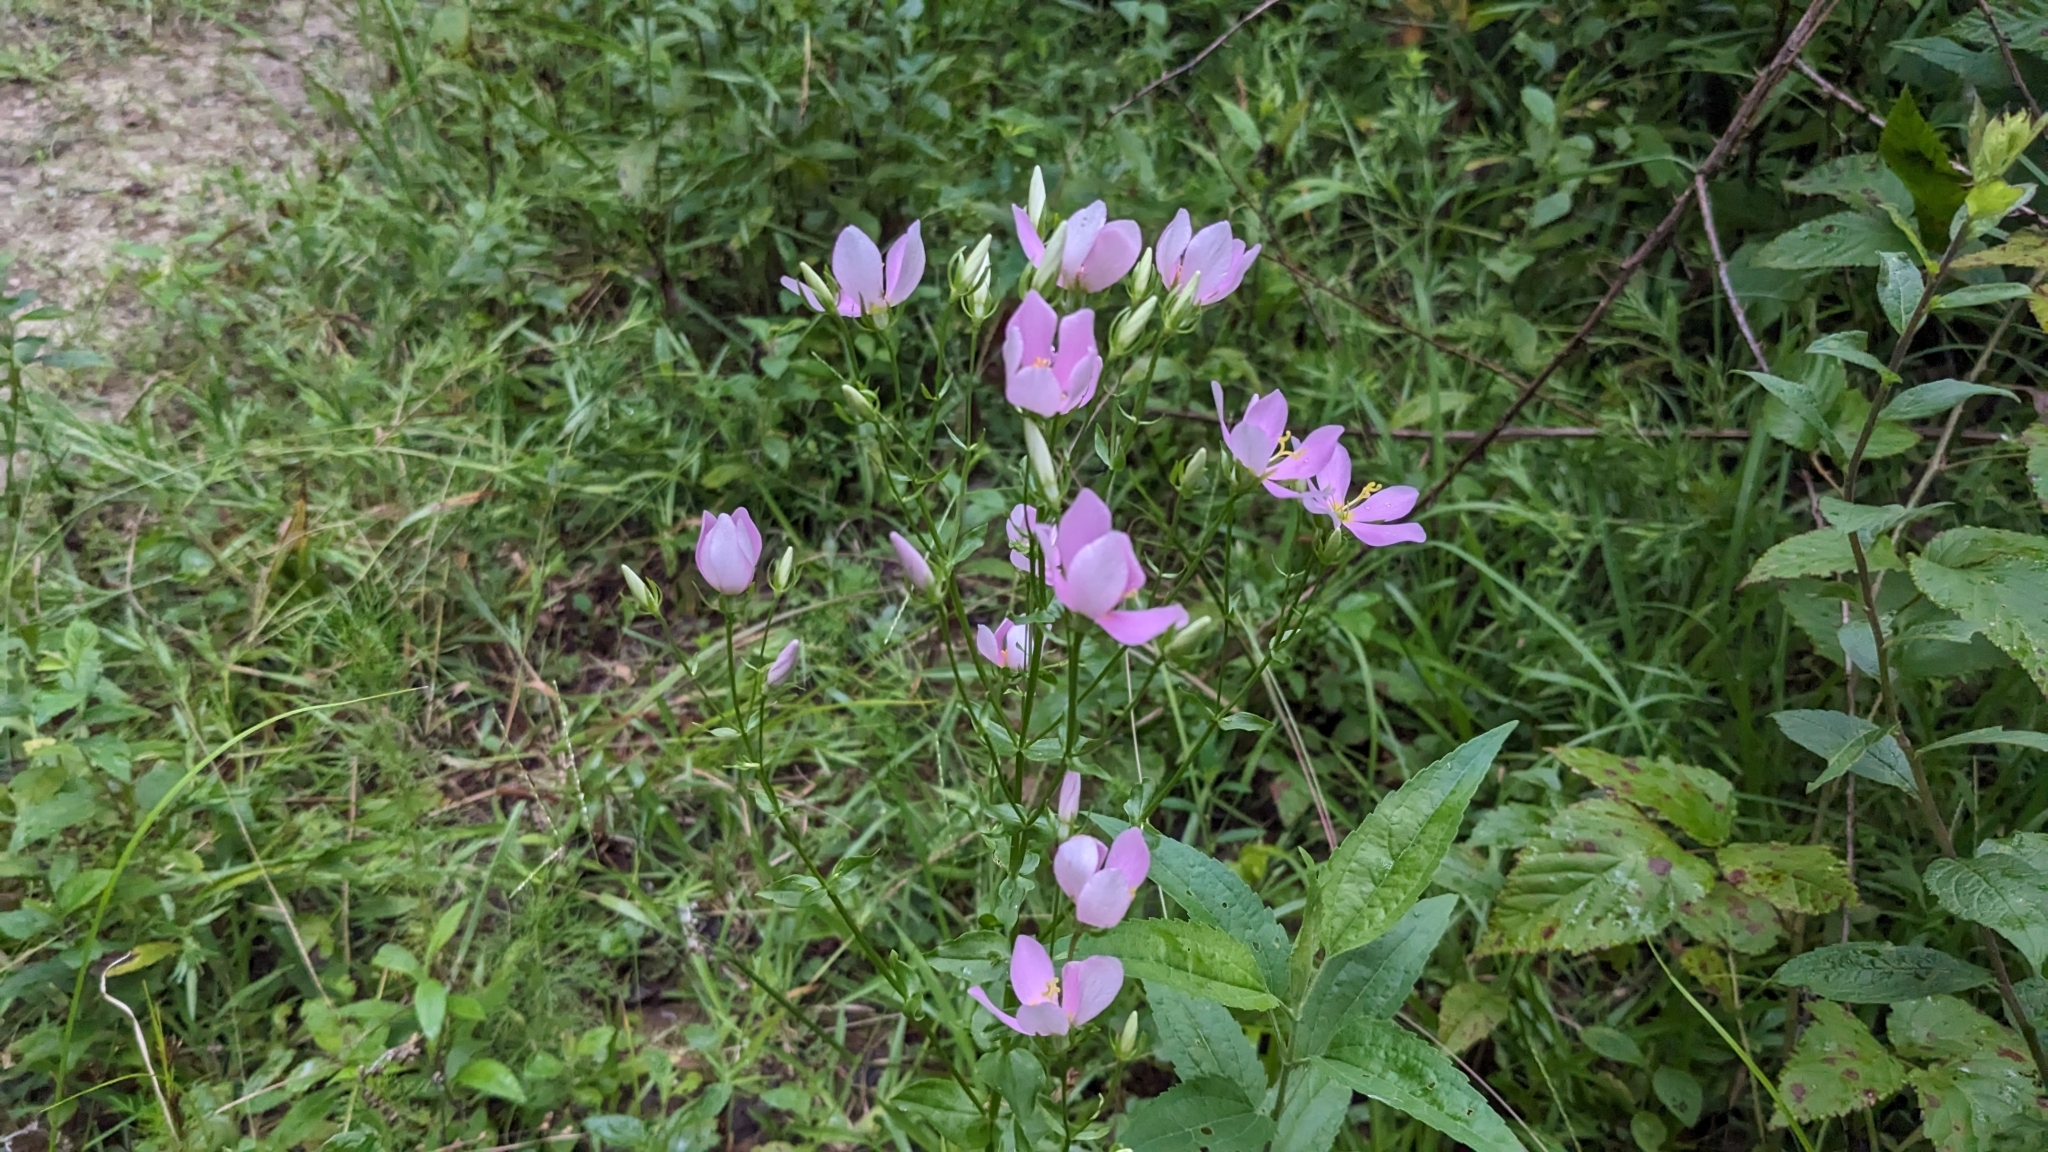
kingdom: Plantae
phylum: Tracheophyta
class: Magnoliopsida
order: Gentianales
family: Gentianaceae
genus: Sabatia
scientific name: Sabatia angularis
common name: Rose-pink
